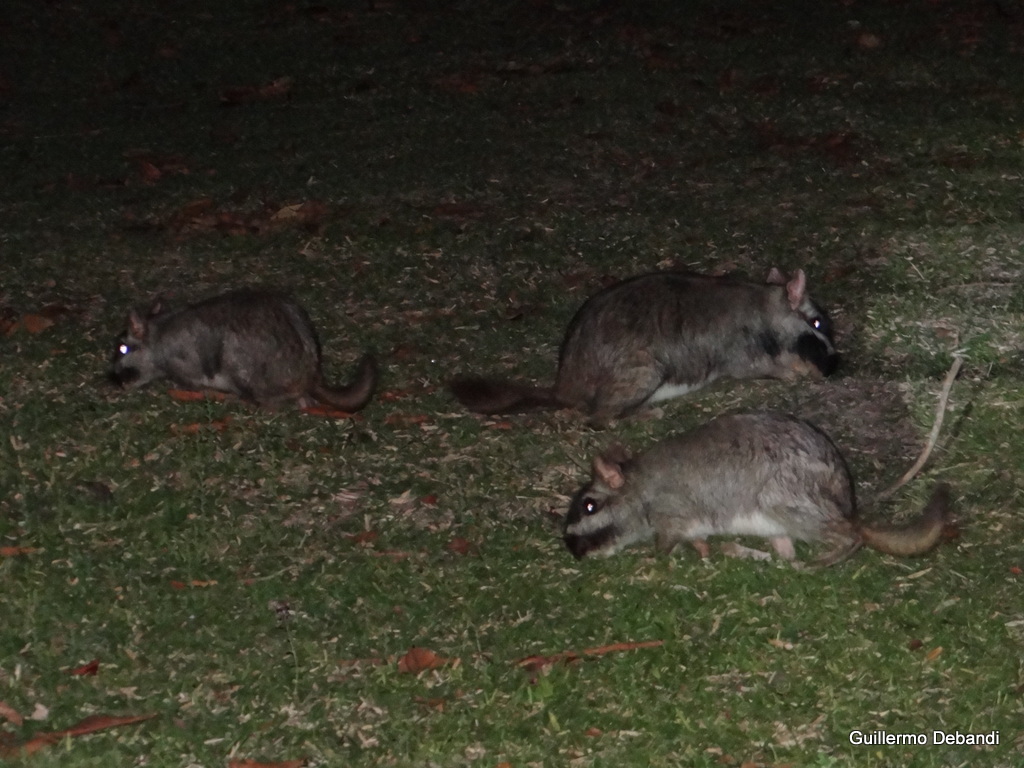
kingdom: Animalia
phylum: Chordata
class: Mammalia
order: Rodentia
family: Chinchillidae
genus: Lagostomus
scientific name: Lagostomus maximus
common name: Plains viscacha
